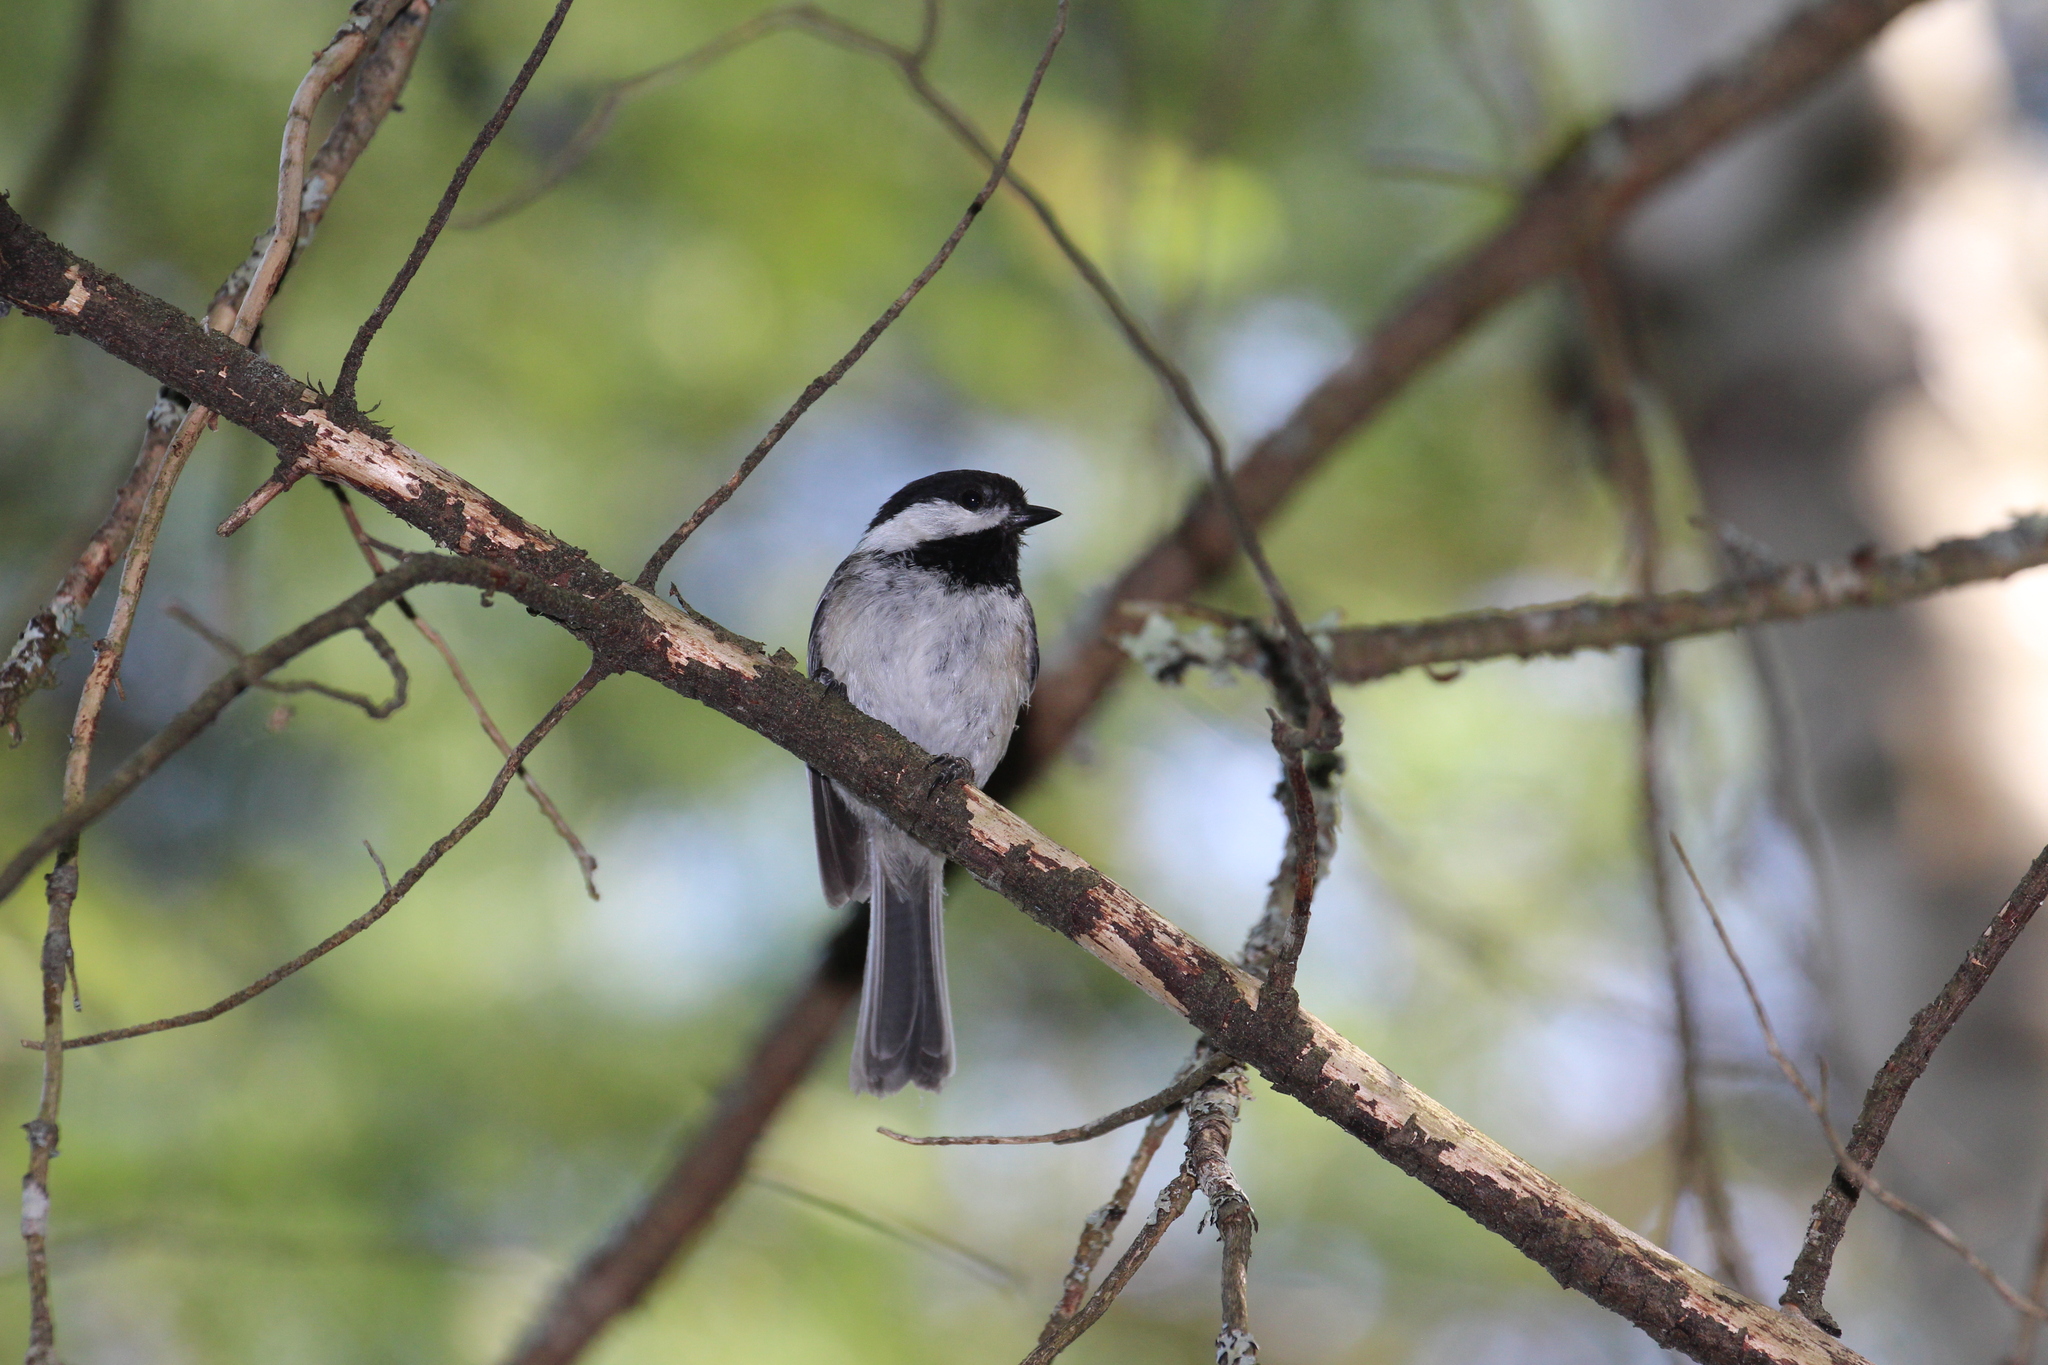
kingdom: Animalia
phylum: Chordata
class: Aves
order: Passeriformes
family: Paridae
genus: Poecile
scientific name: Poecile atricapillus
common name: Black-capped chickadee
